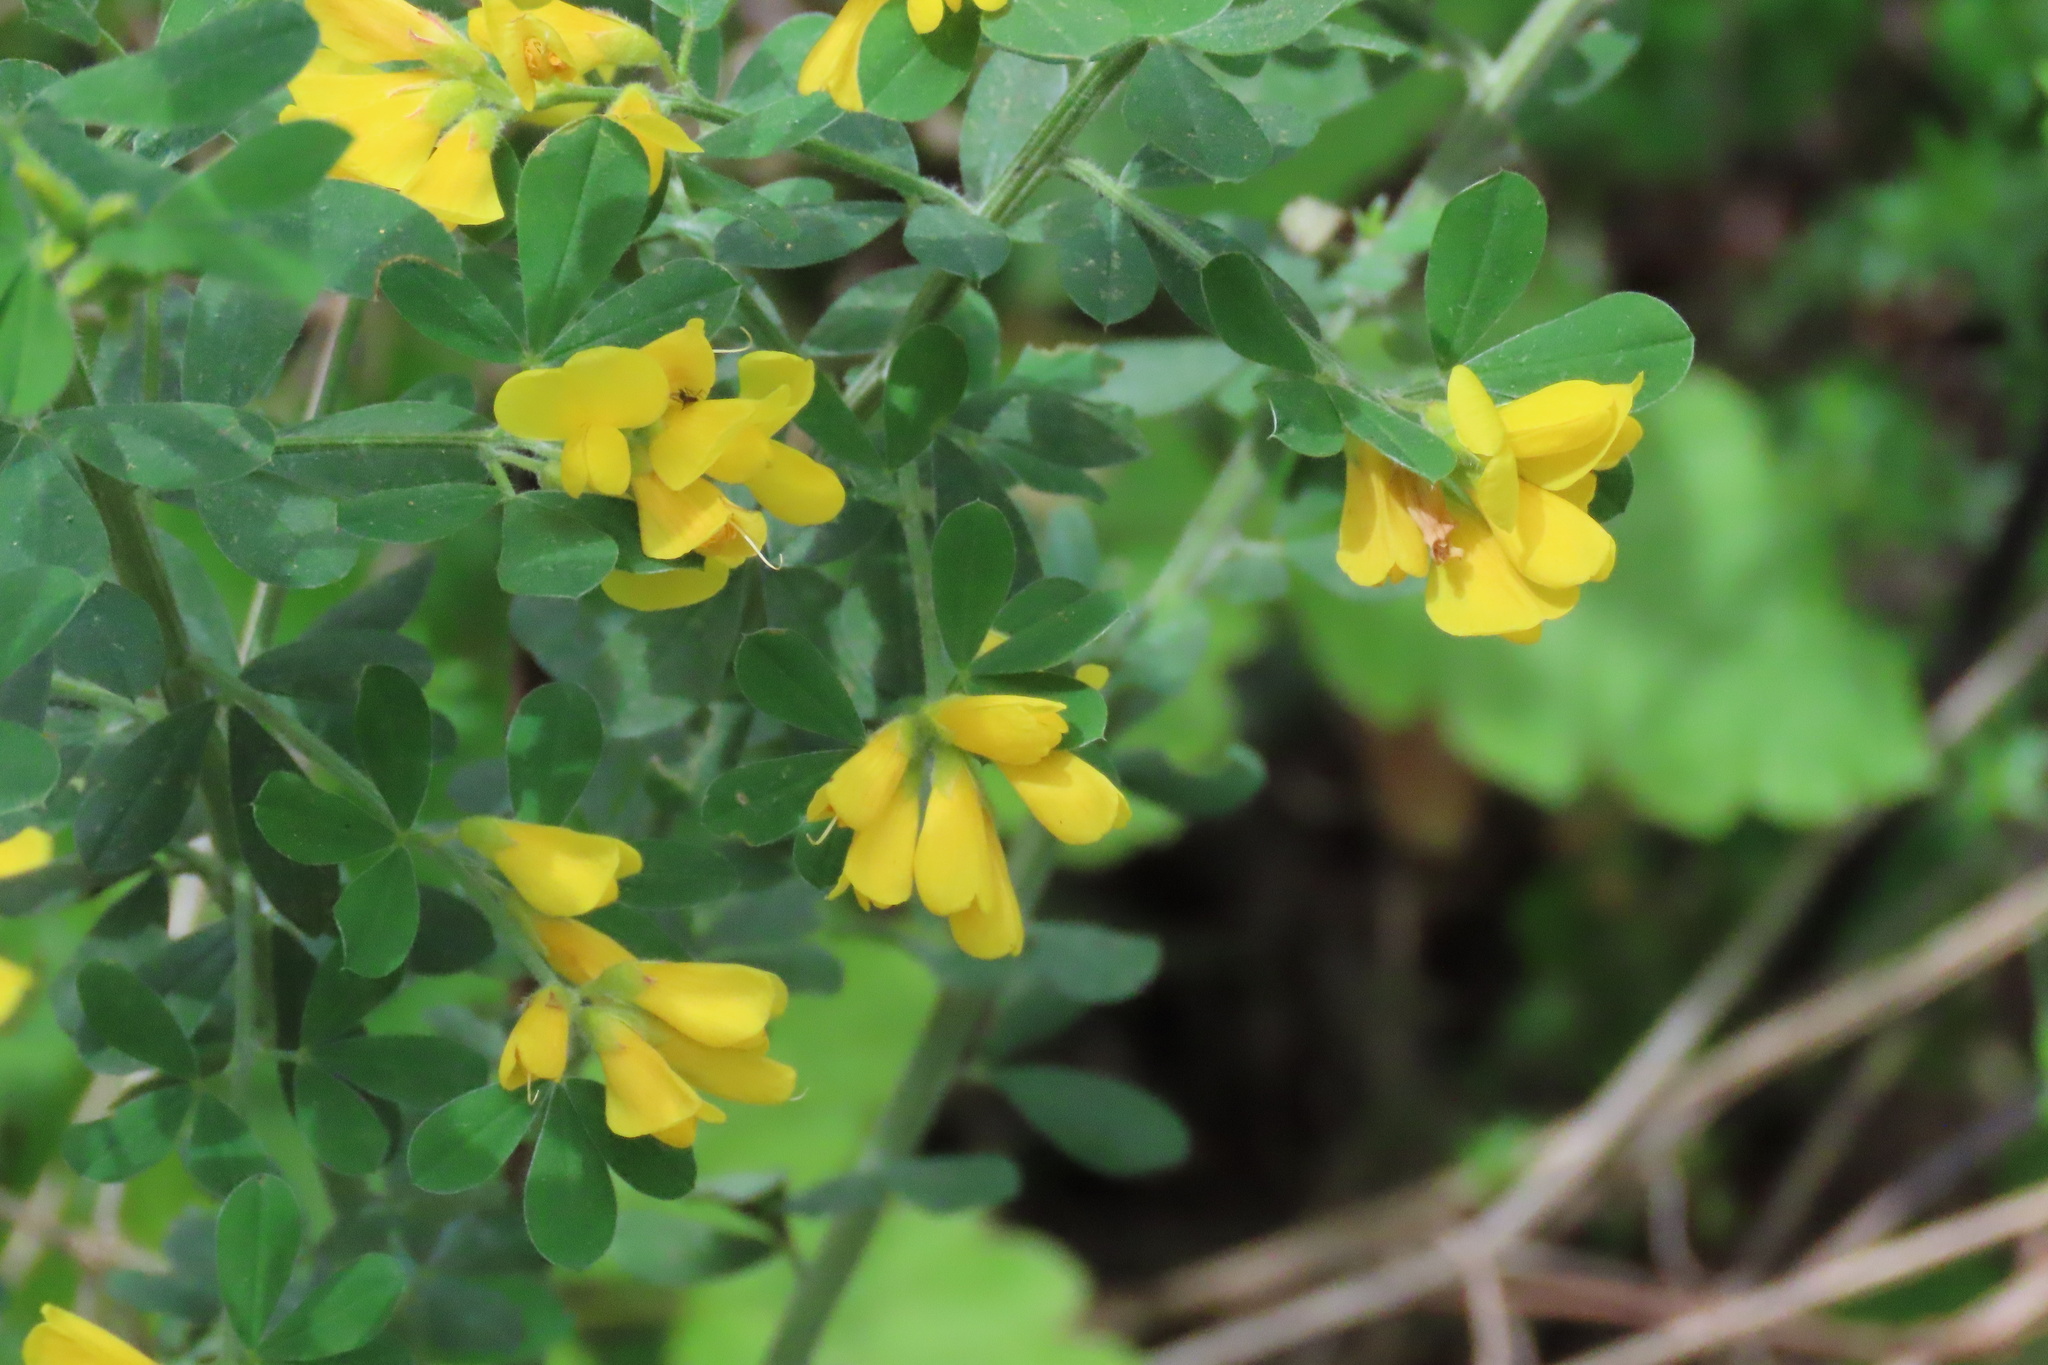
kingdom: Plantae
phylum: Tracheophyta
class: Magnoliopsida
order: Fabales
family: Fabaceae
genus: Genista
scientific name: Genista monspessulana
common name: Montpellier broom
